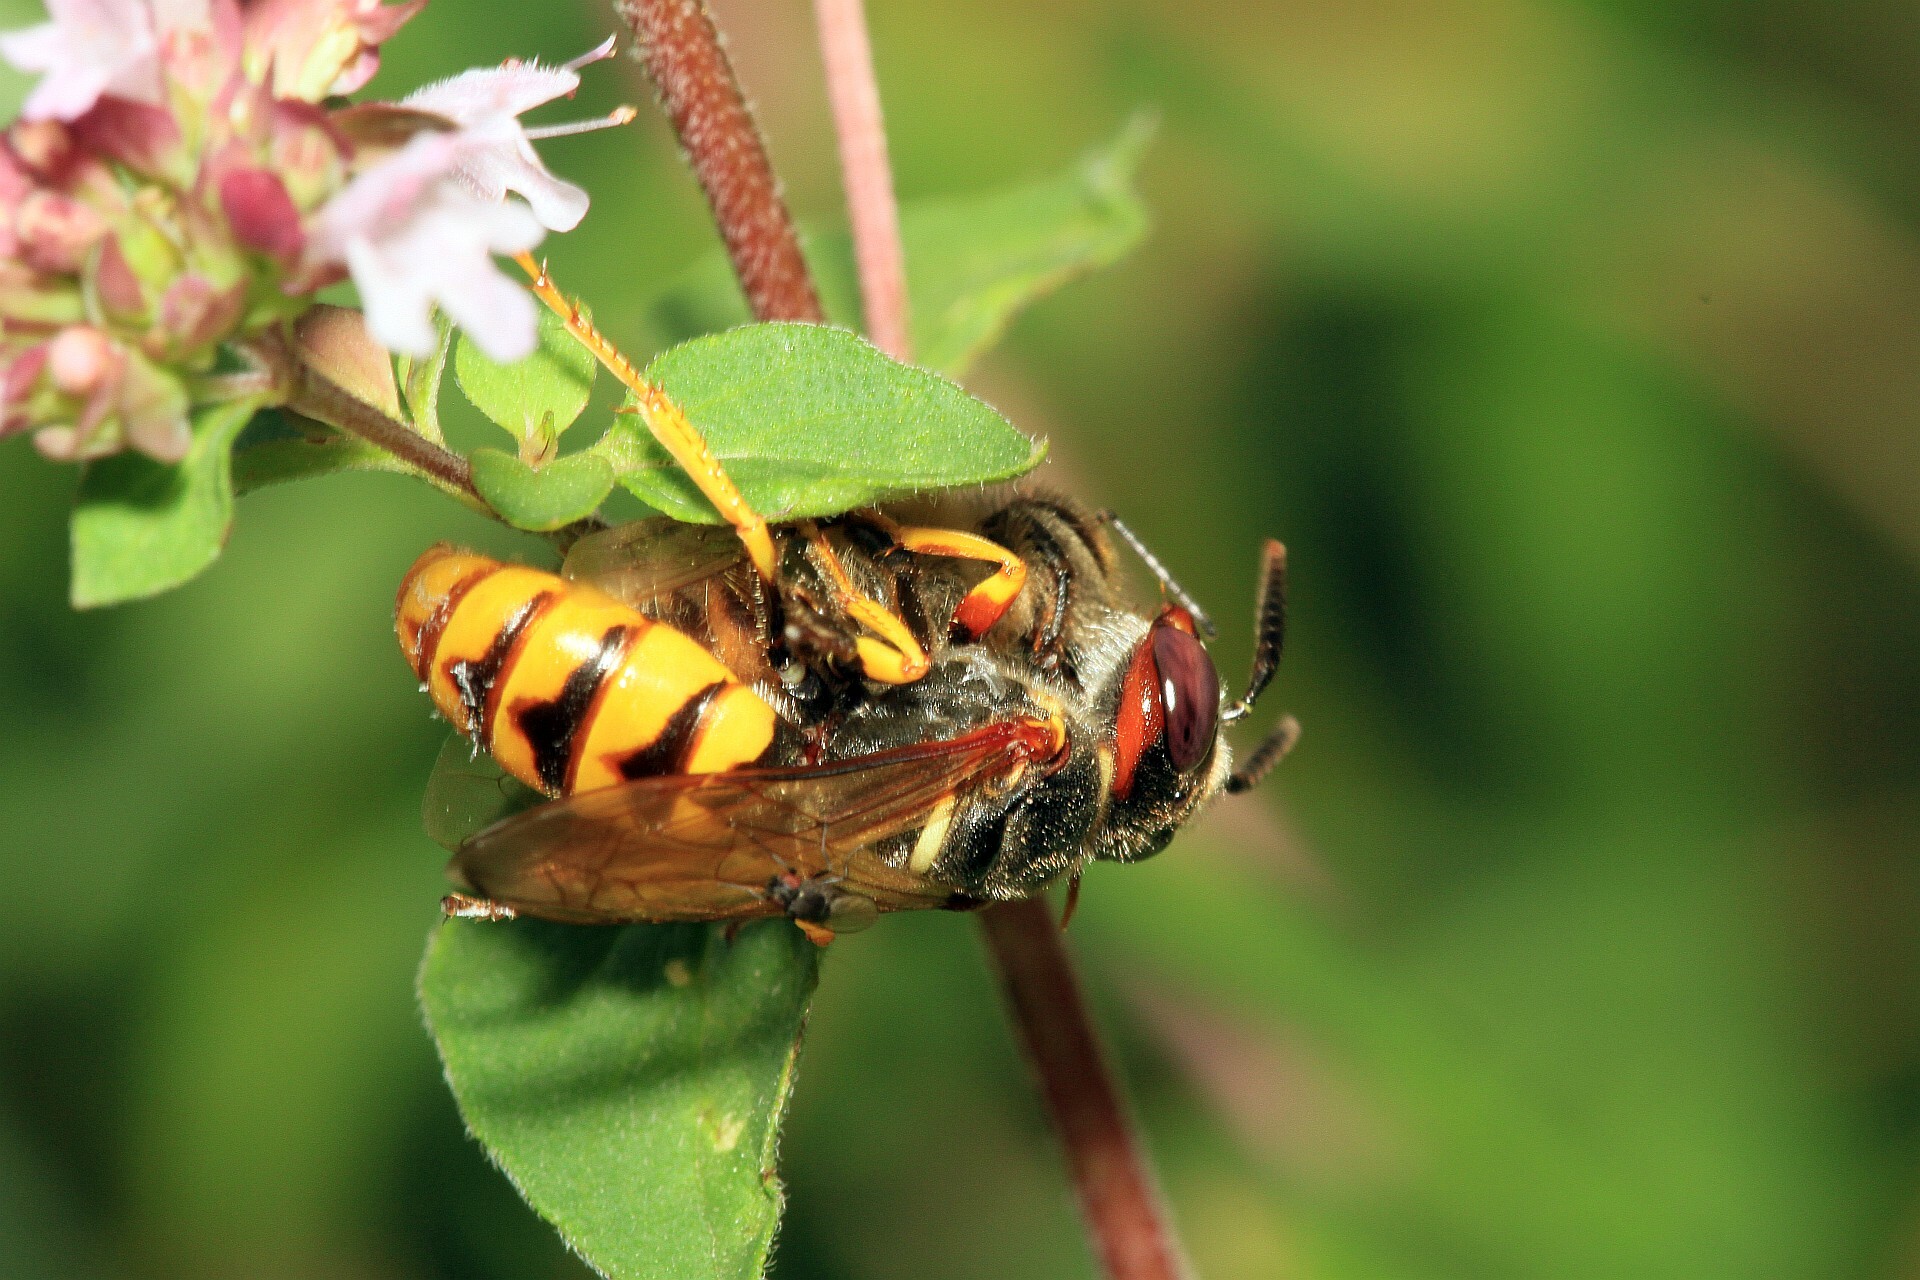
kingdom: Animalia
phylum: Arthropoda
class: Insecta
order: Hymenoptera
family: Crabronidae
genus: Philanthus
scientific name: Philanthus triangulum
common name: Bee wolf
